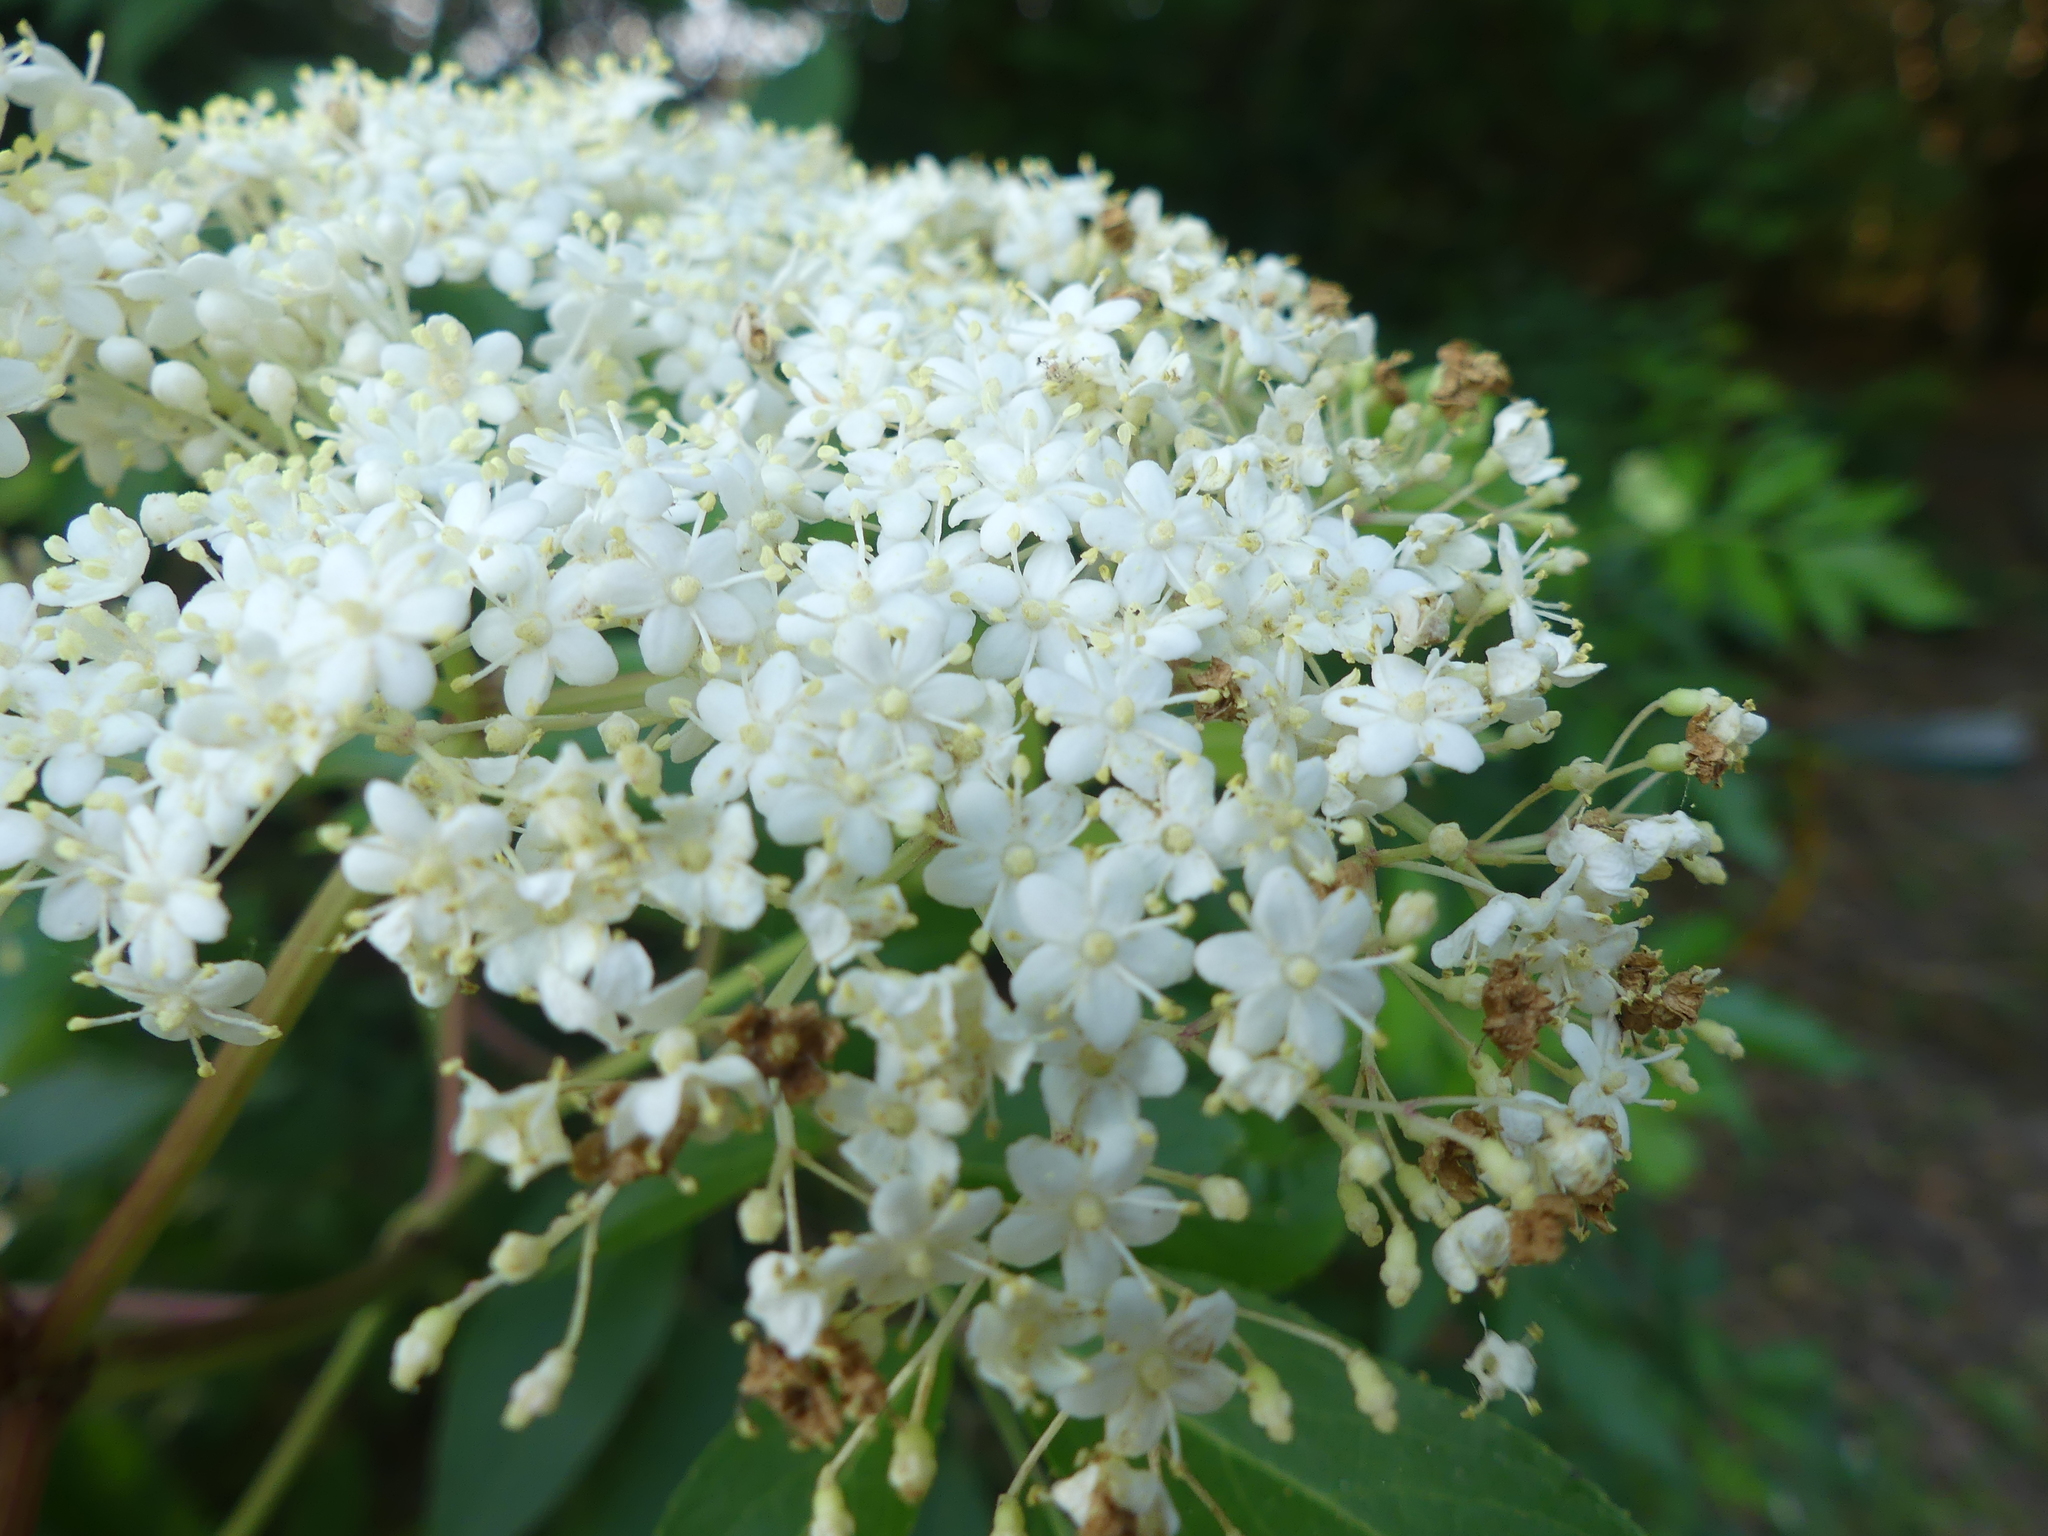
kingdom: Plantae
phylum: Tracheophyta
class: Magnoliopsida
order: Dipsacales
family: Viburnaceae
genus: Sambucus
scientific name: Sambucus canadensis
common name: American elder
